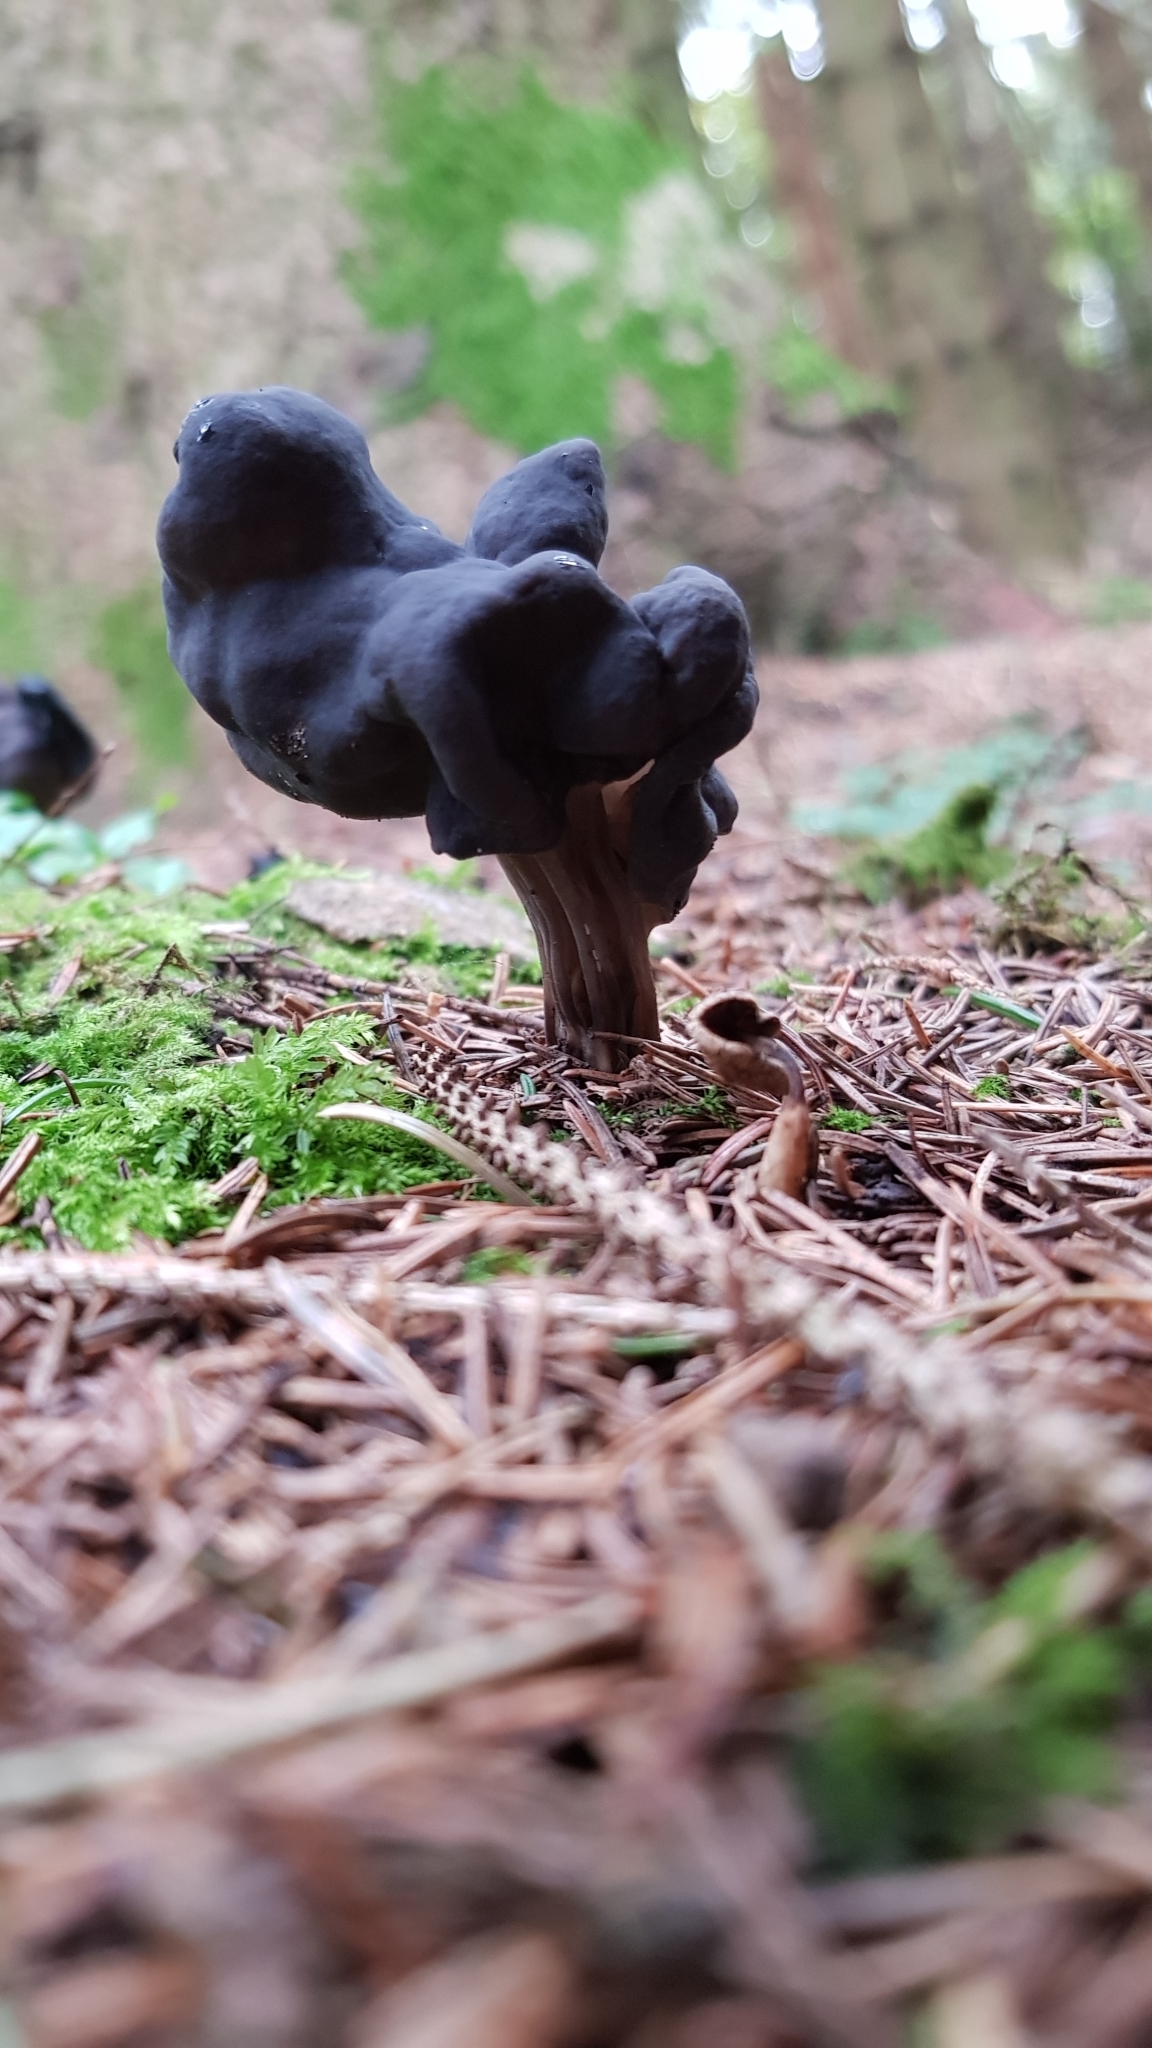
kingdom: Fungi
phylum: Ascomycota
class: Pezizomycetes
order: Pezizales
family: Helvellaceae
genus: Helvella
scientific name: Helvella lacunosa
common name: Elfin saddle
